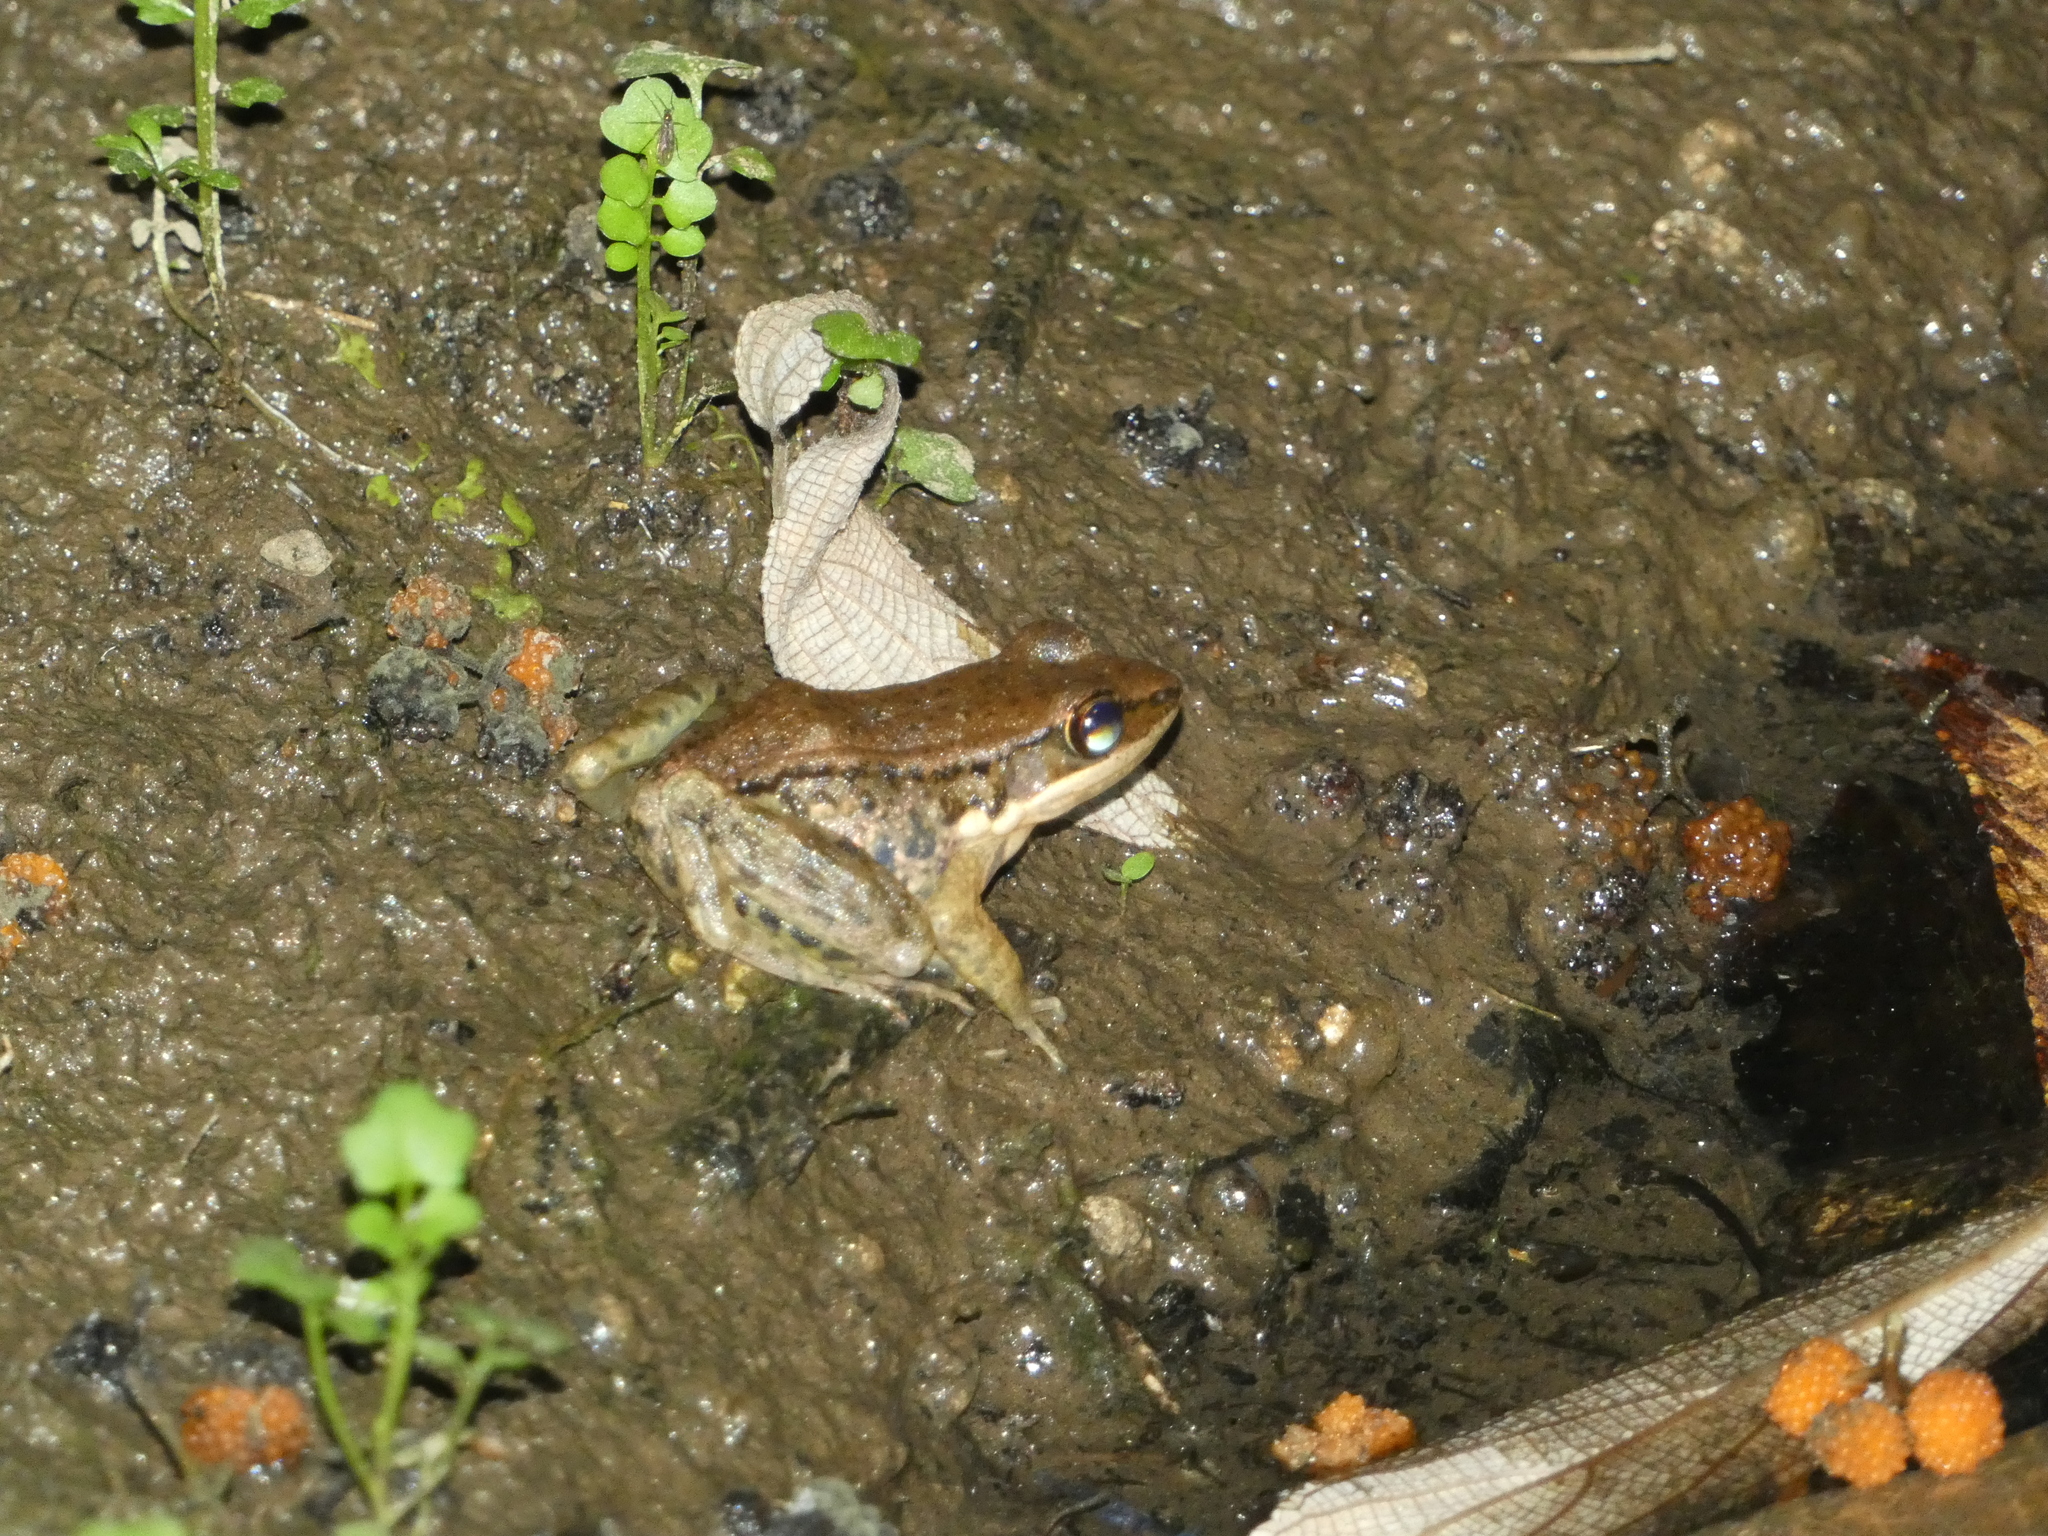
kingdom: Animalia
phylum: Chordata
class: Amphibia
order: Anura
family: Ranidae
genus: Sylvirana
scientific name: Sylvirana nigrovittata
